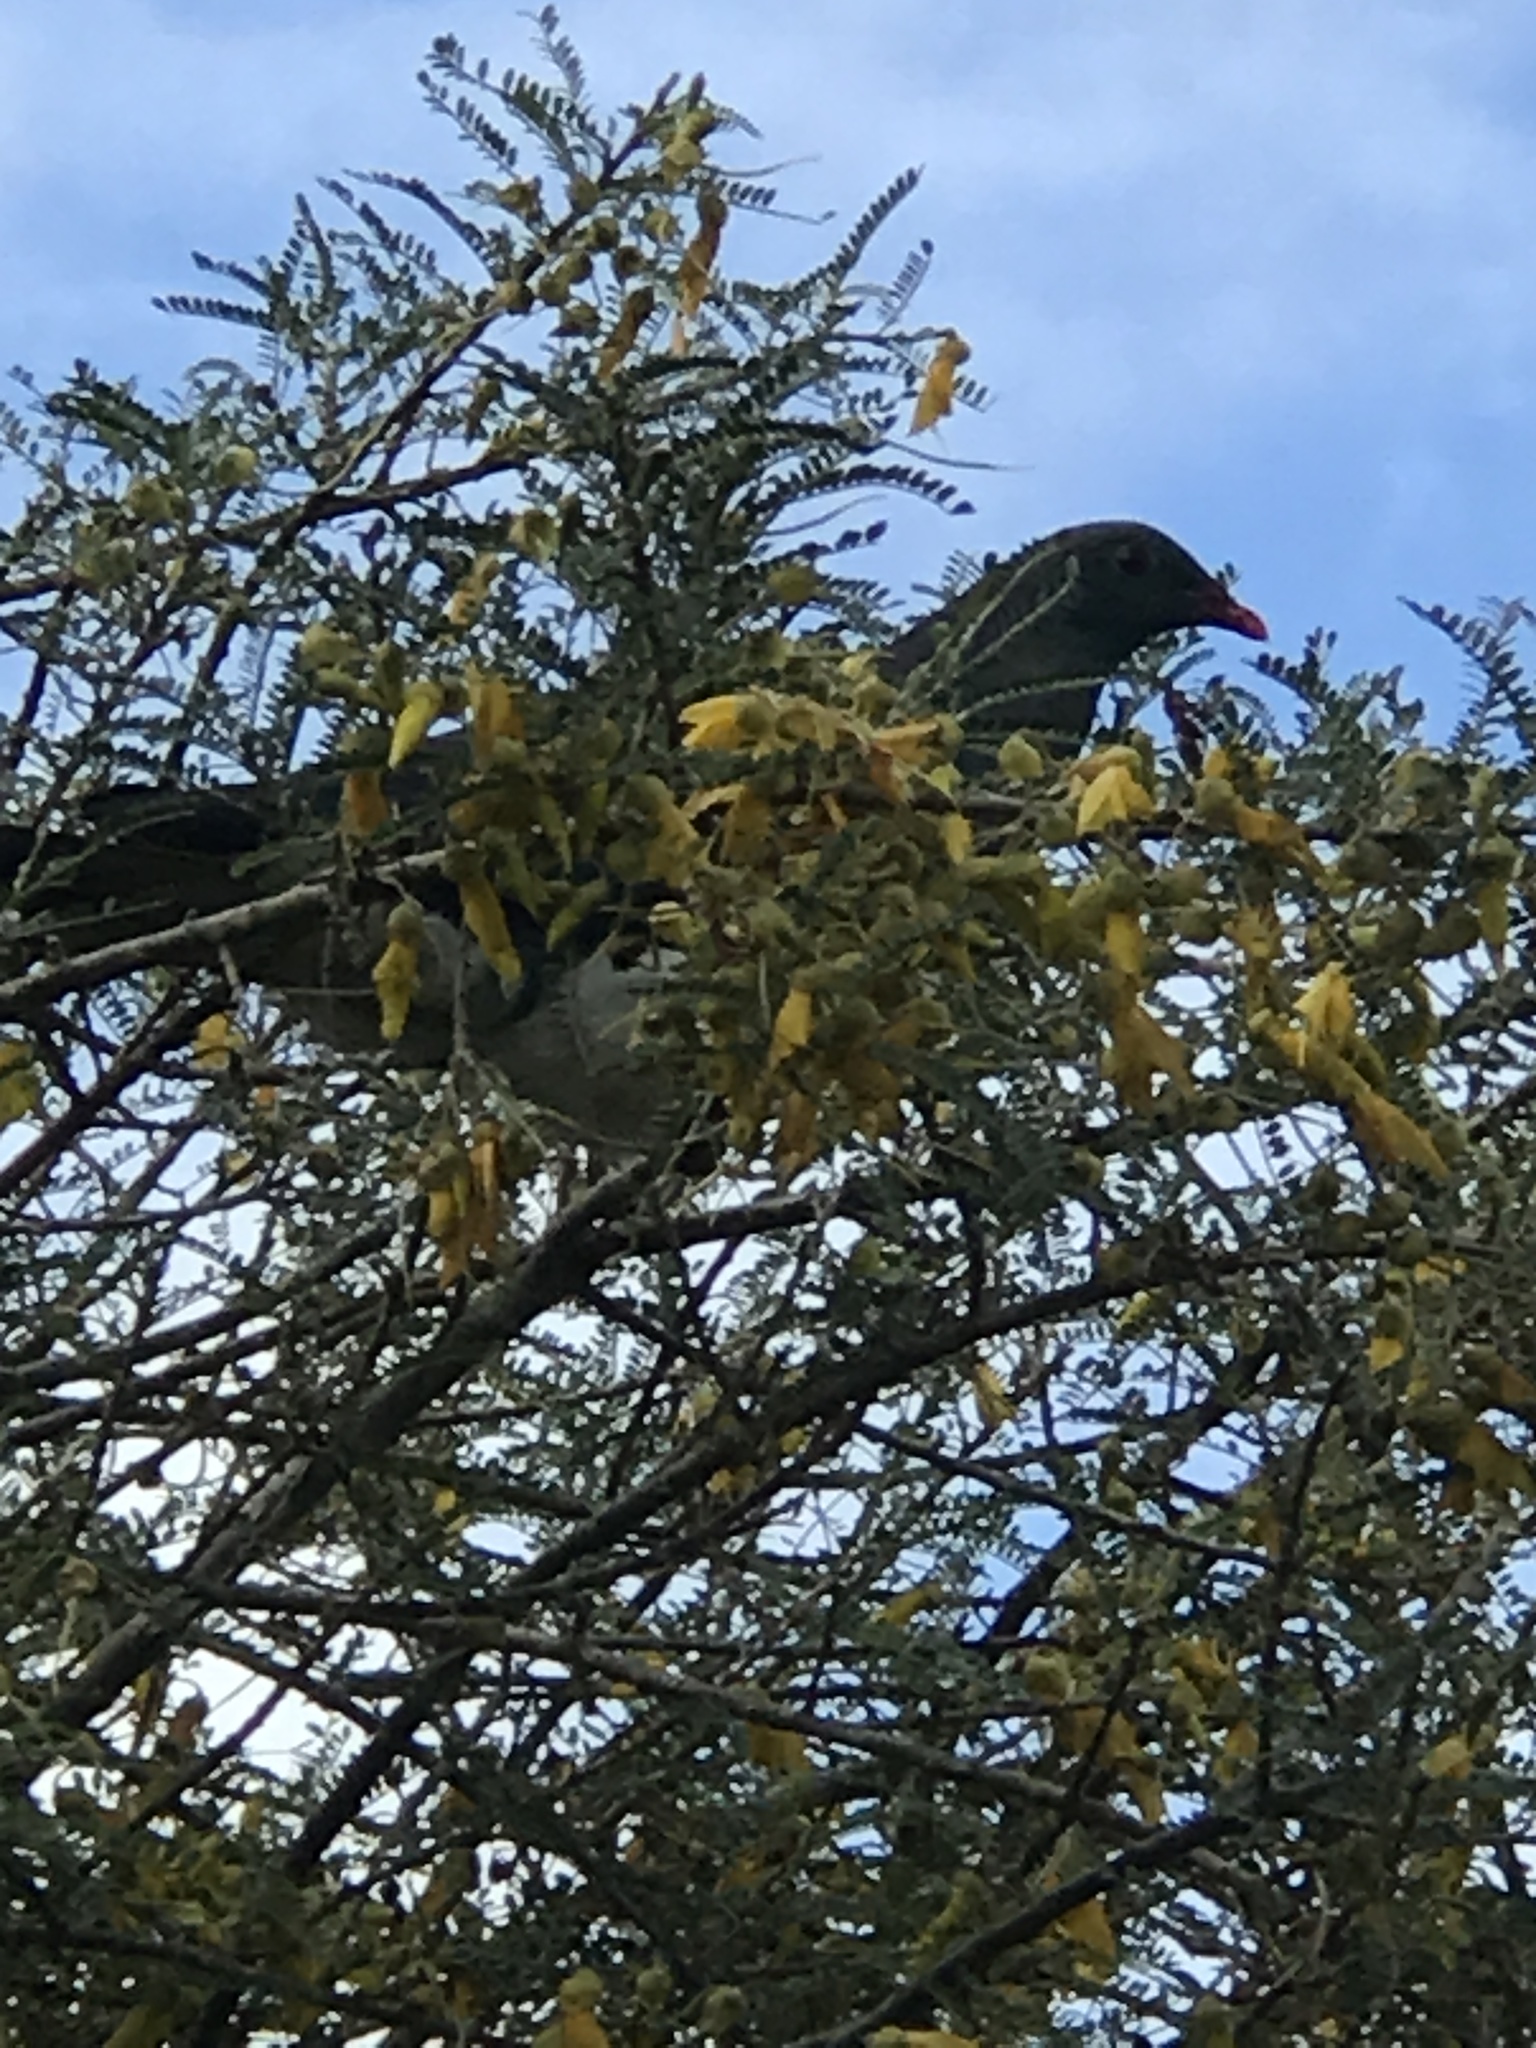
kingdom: Animalia
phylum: Chordata
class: Aves
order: Columbiformes
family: Columbidae
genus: Hemiphaga
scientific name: Hemiphaga novaeseelandiae
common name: New zealand pigeon
